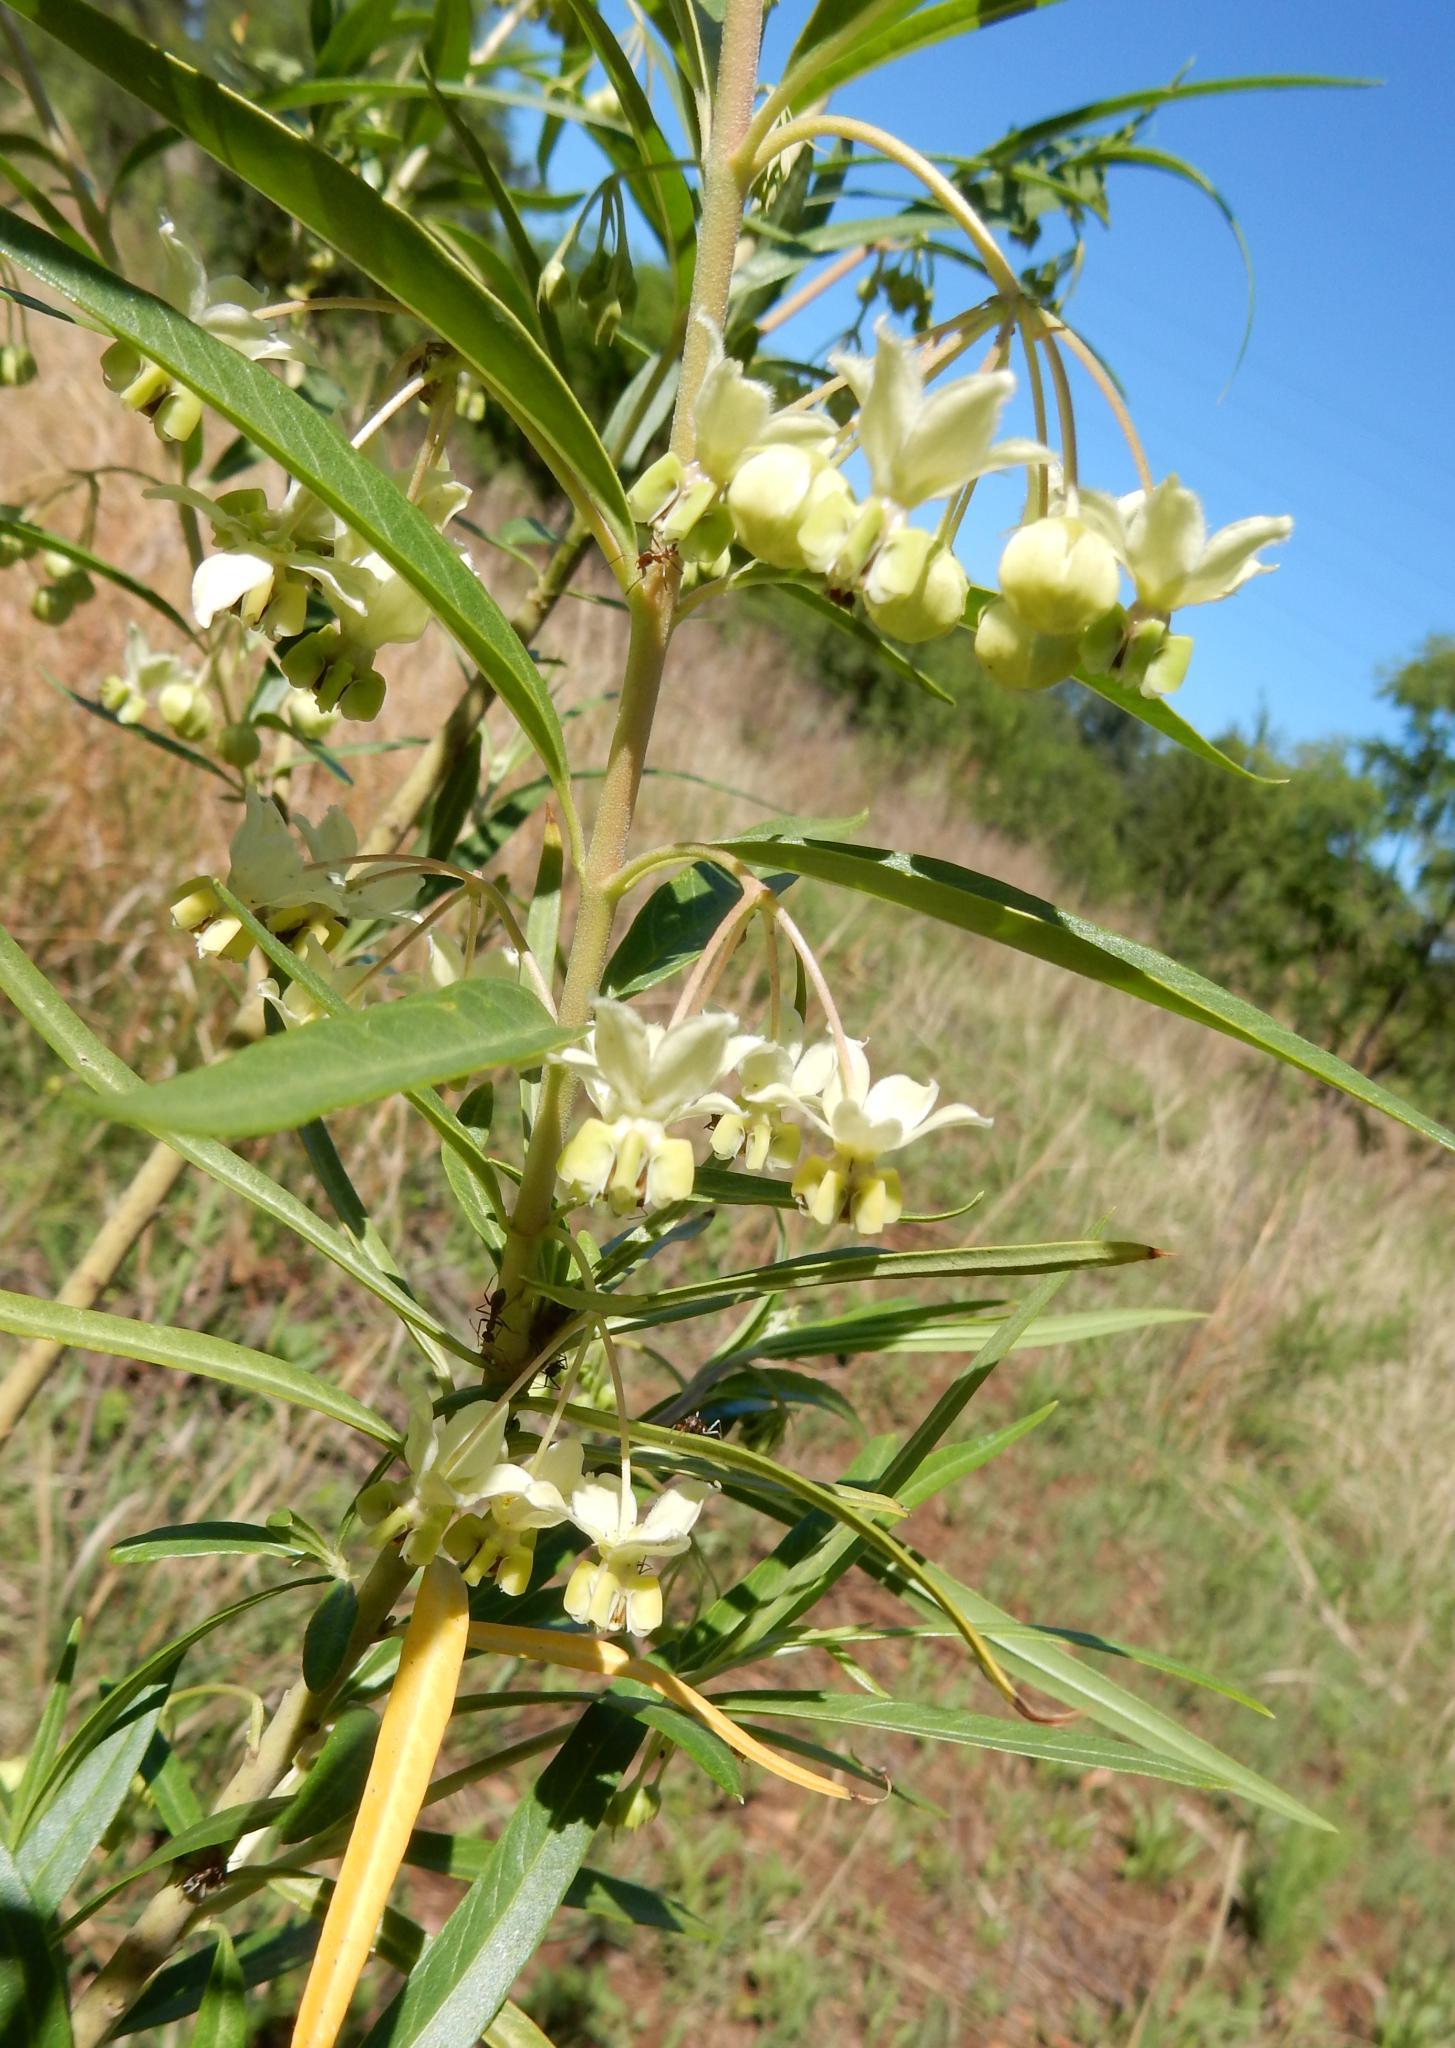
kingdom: Plantae
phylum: Tracheophyta
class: Magnoliopsida
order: Gentianales
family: Apocynaceae
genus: Gomphocarpus
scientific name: Gomphocarpus fruticosus
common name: Milkweed
